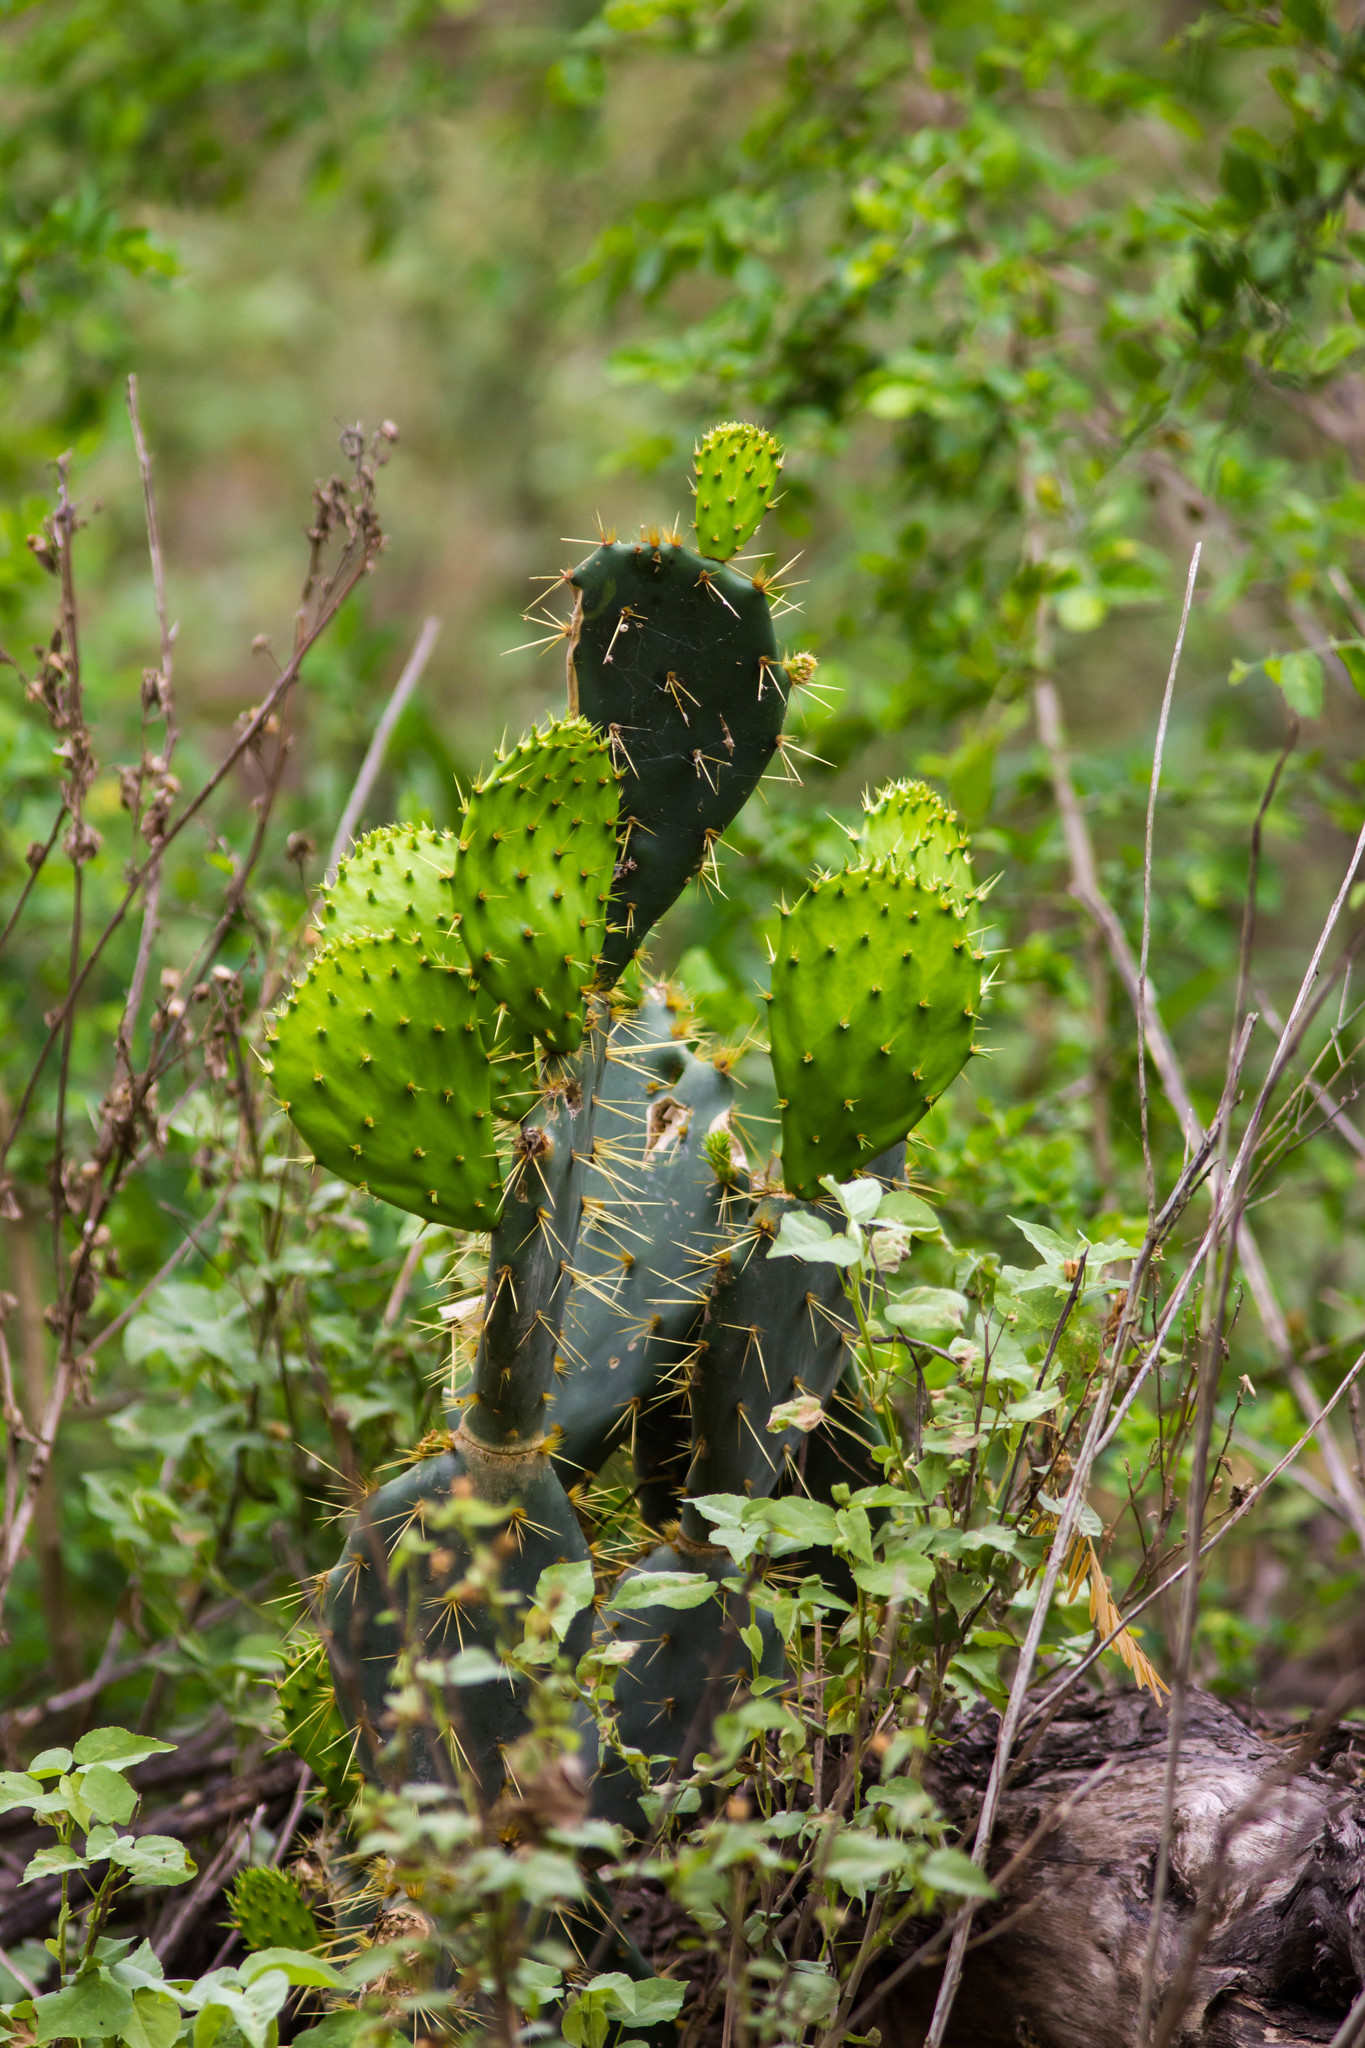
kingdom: Plantae
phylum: Tracheophyta
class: Magnoliopsida
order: Caryophyllales
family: Cactaceae
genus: Opuntia
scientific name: Opuntia engelmannii
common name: Cactus-apple
